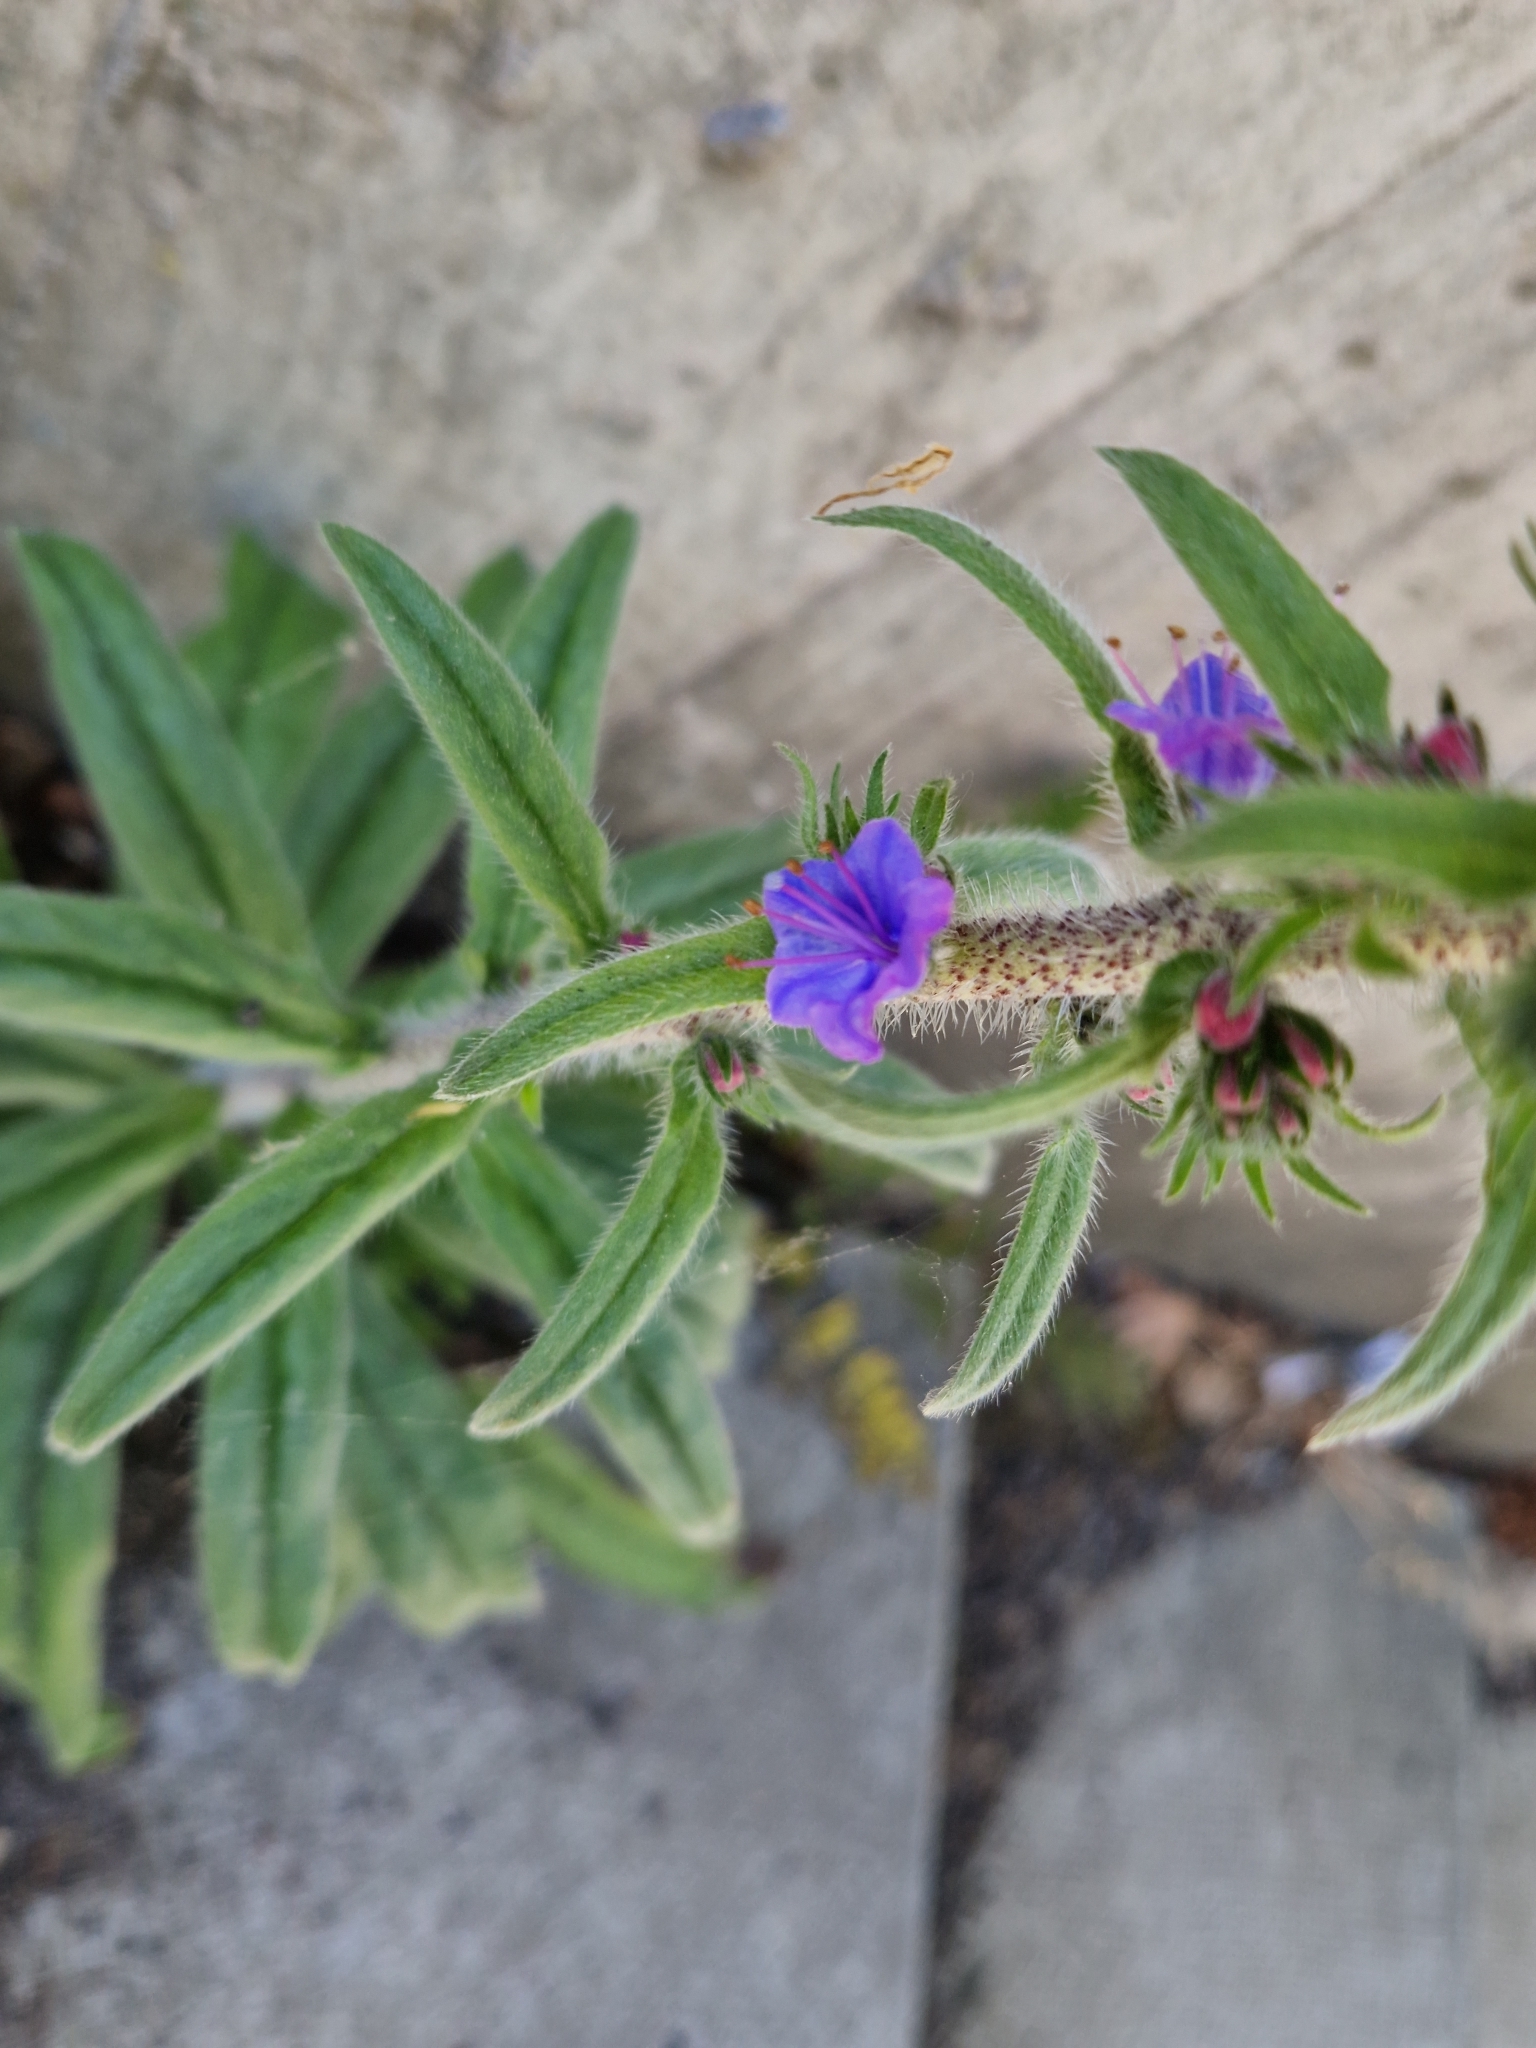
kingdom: Plantae
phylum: Tracheophyta
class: Magnoliopsida
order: Boraginales
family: Boraginaceae
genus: Echium
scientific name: Echium vulgare
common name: Common viper's bugloss
